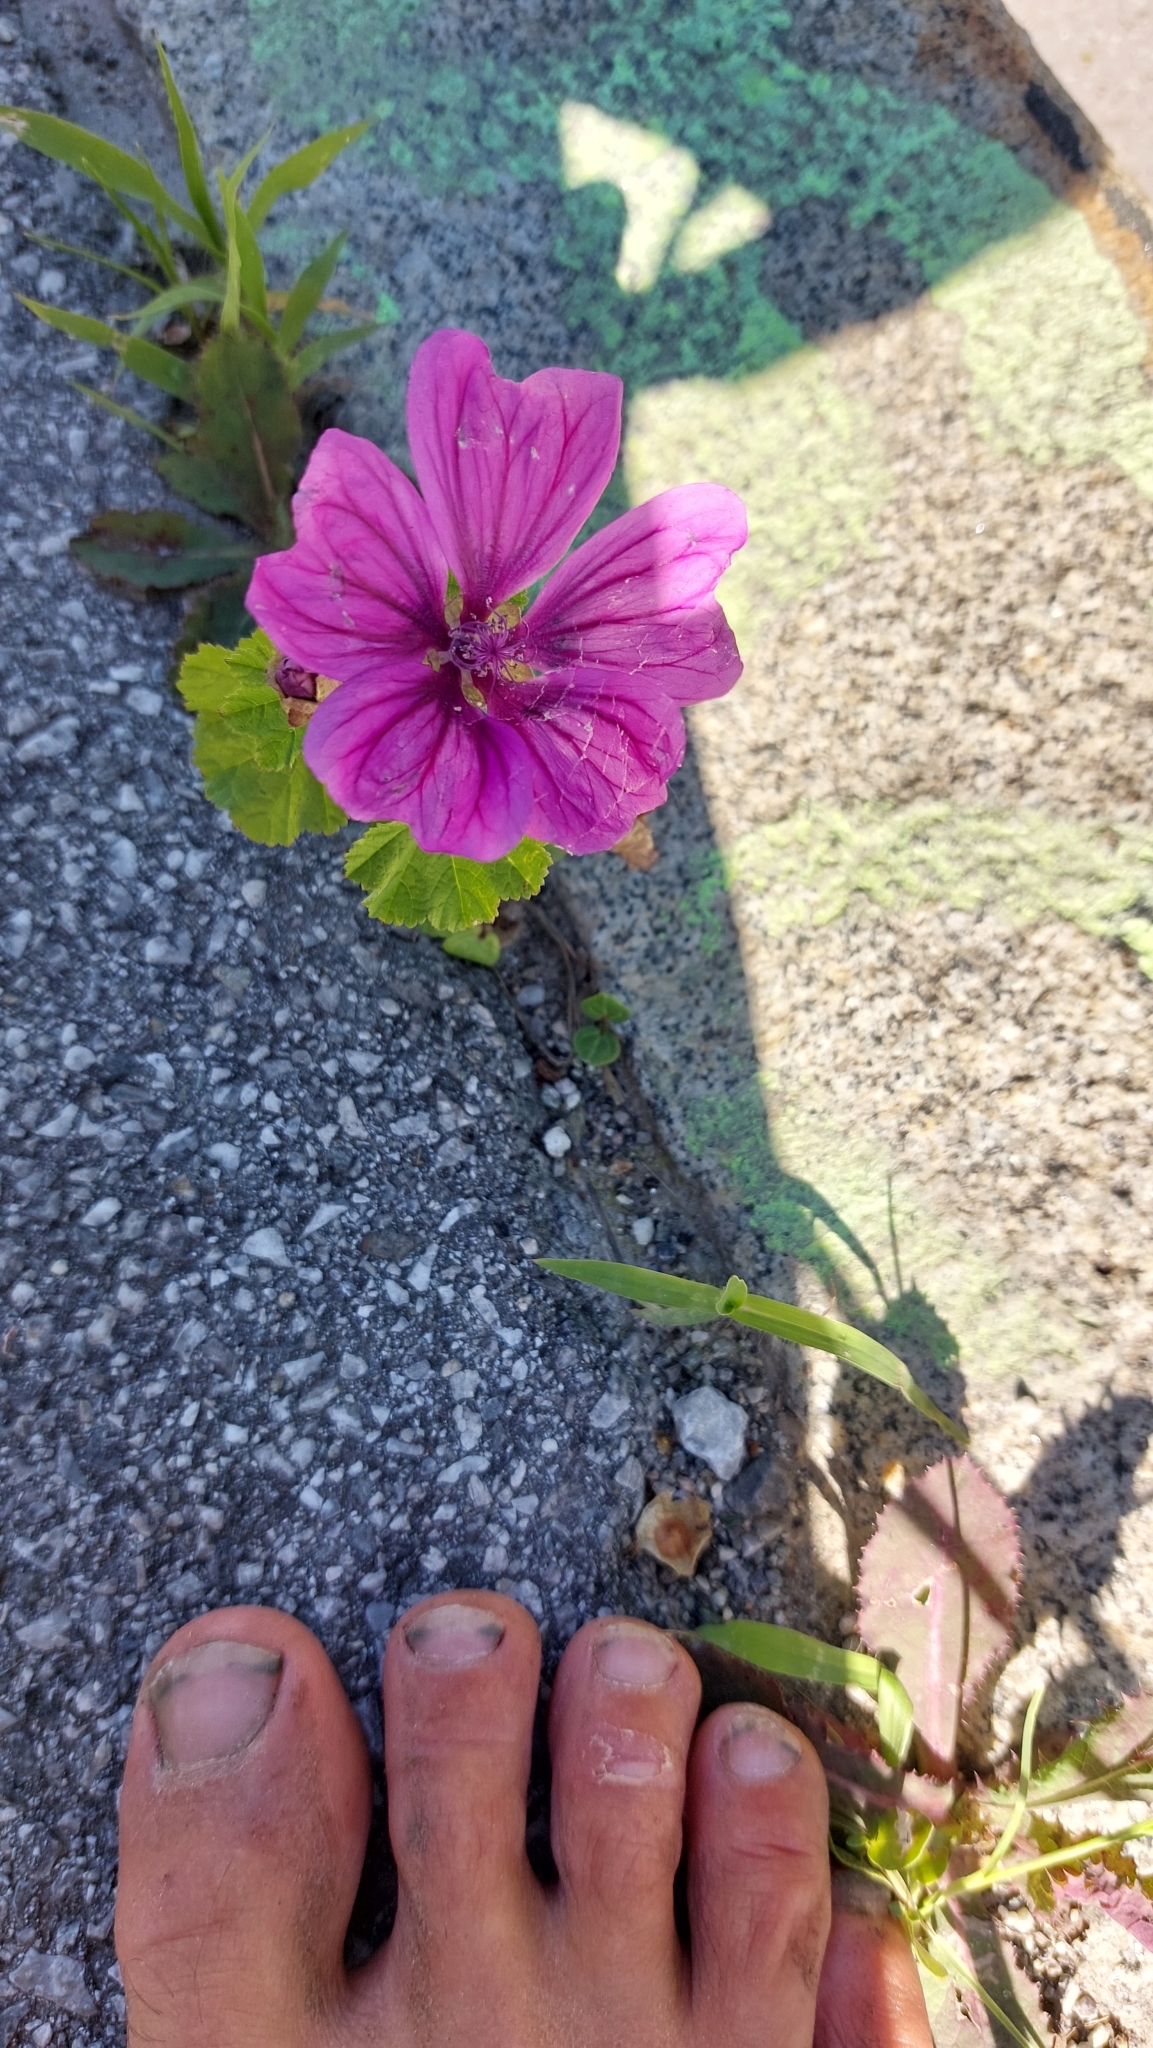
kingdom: Plantae
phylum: Tracheophyta
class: Magnoliopsida
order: Malvales
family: Malvaceae
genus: Malva
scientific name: Malva sylvestris
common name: Common mallow
